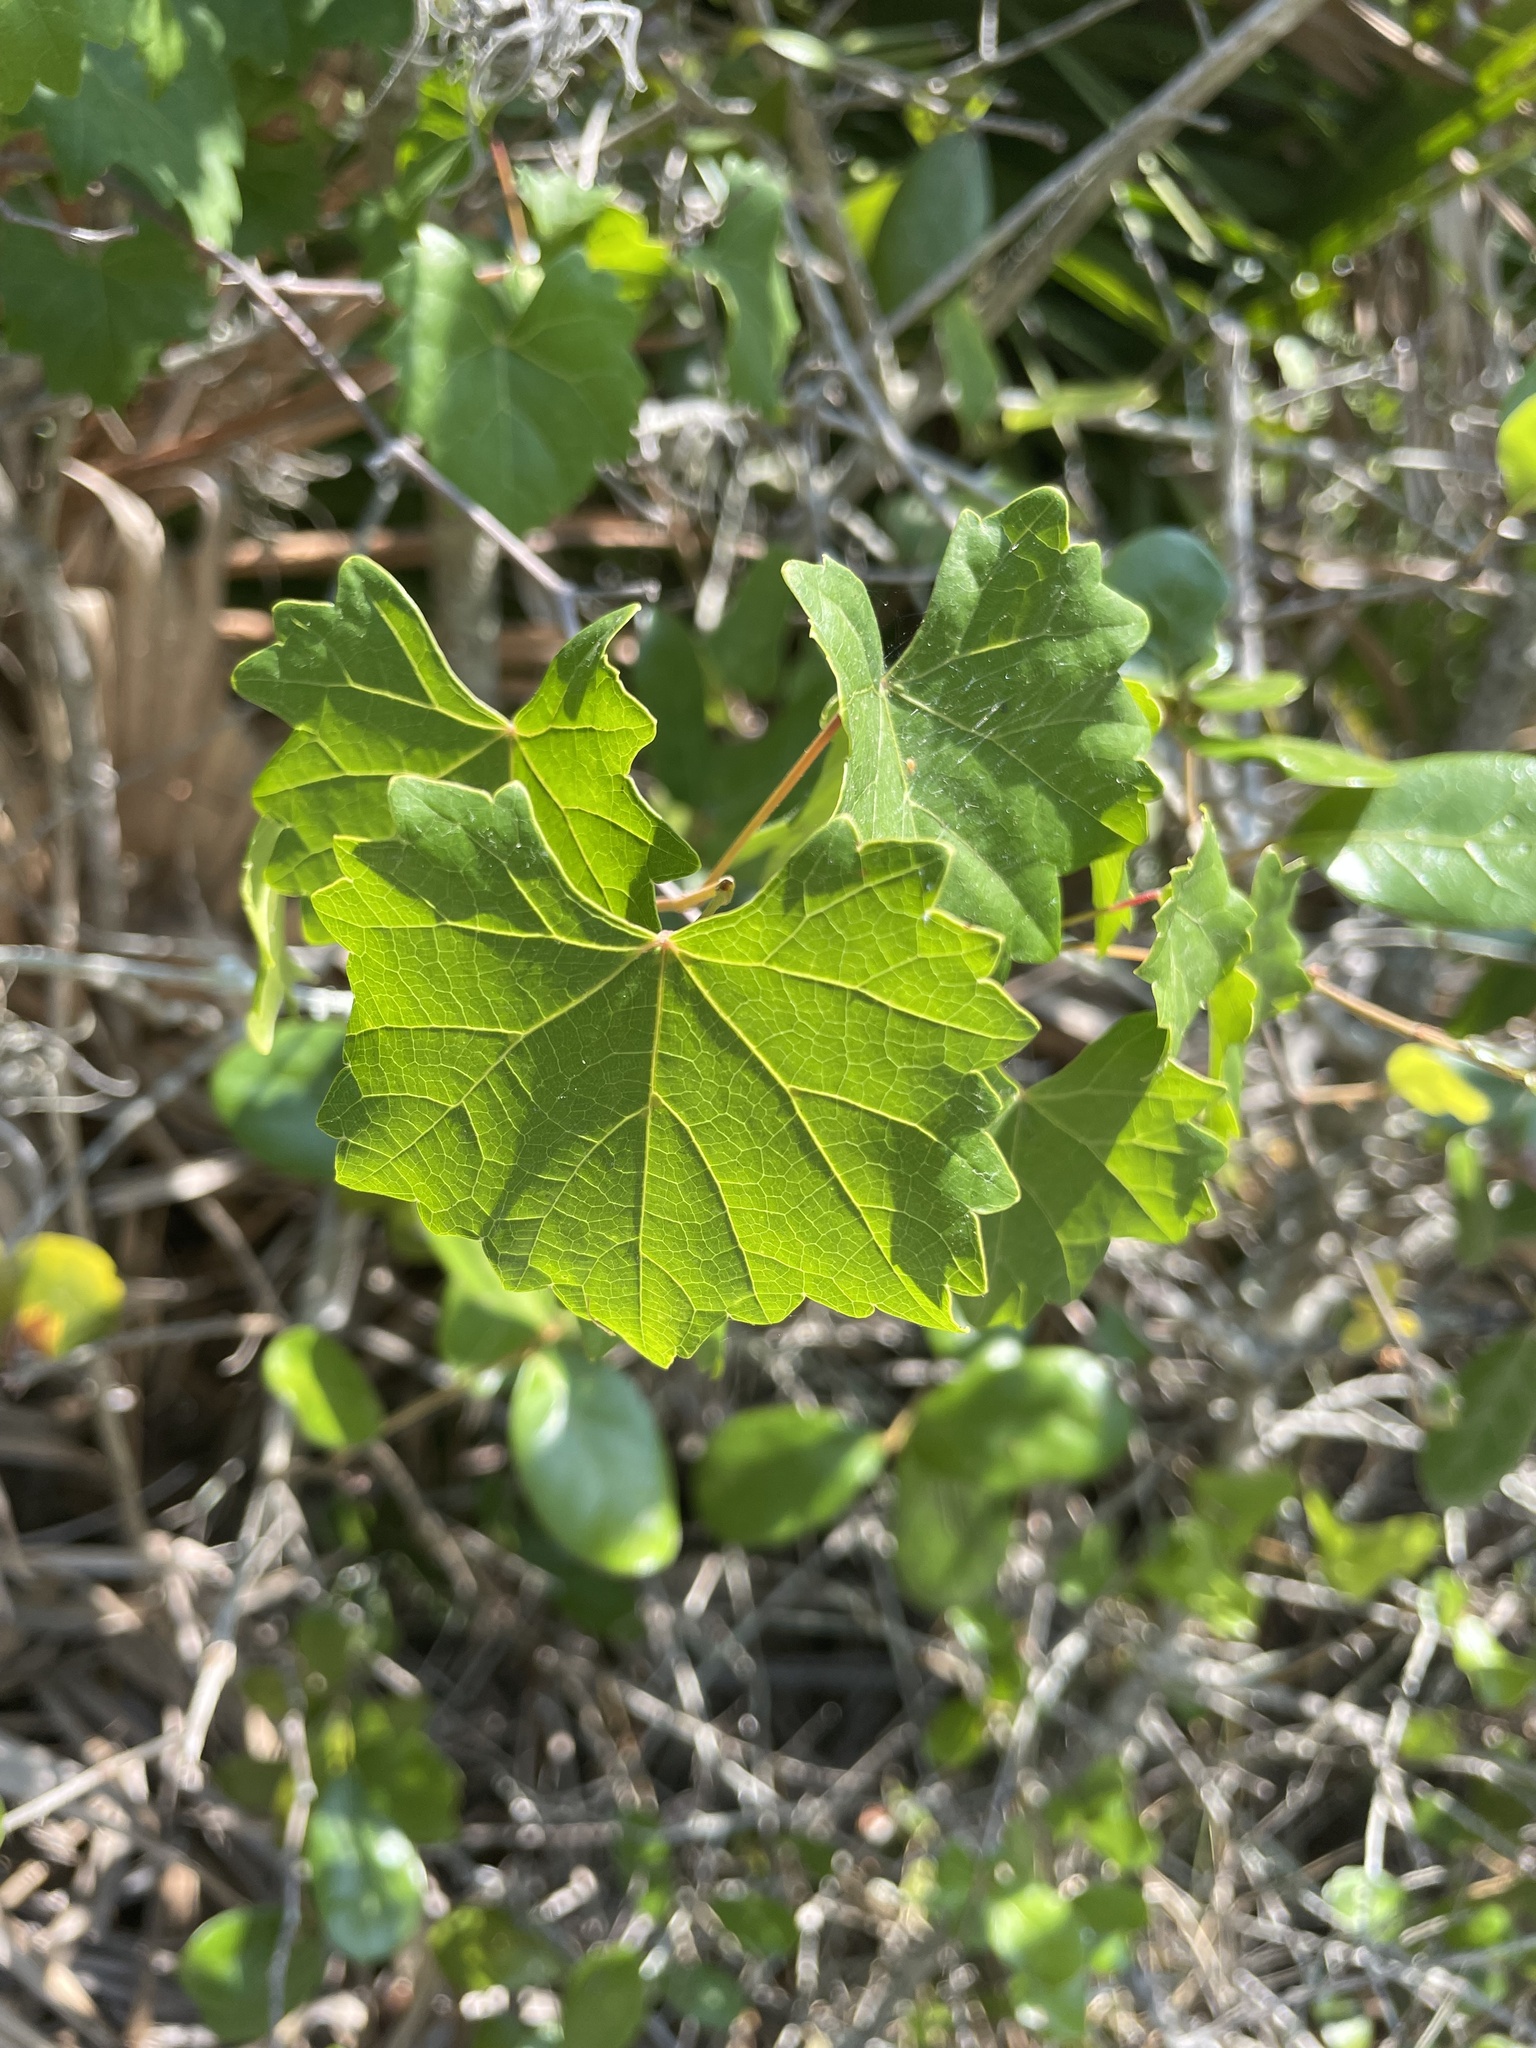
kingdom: Plantae
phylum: Tracheophyta
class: Magnoliopsida
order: Vitales
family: Vitaceae
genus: Vitis
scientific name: Vitis rotundifolia
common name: Muscadine grape
